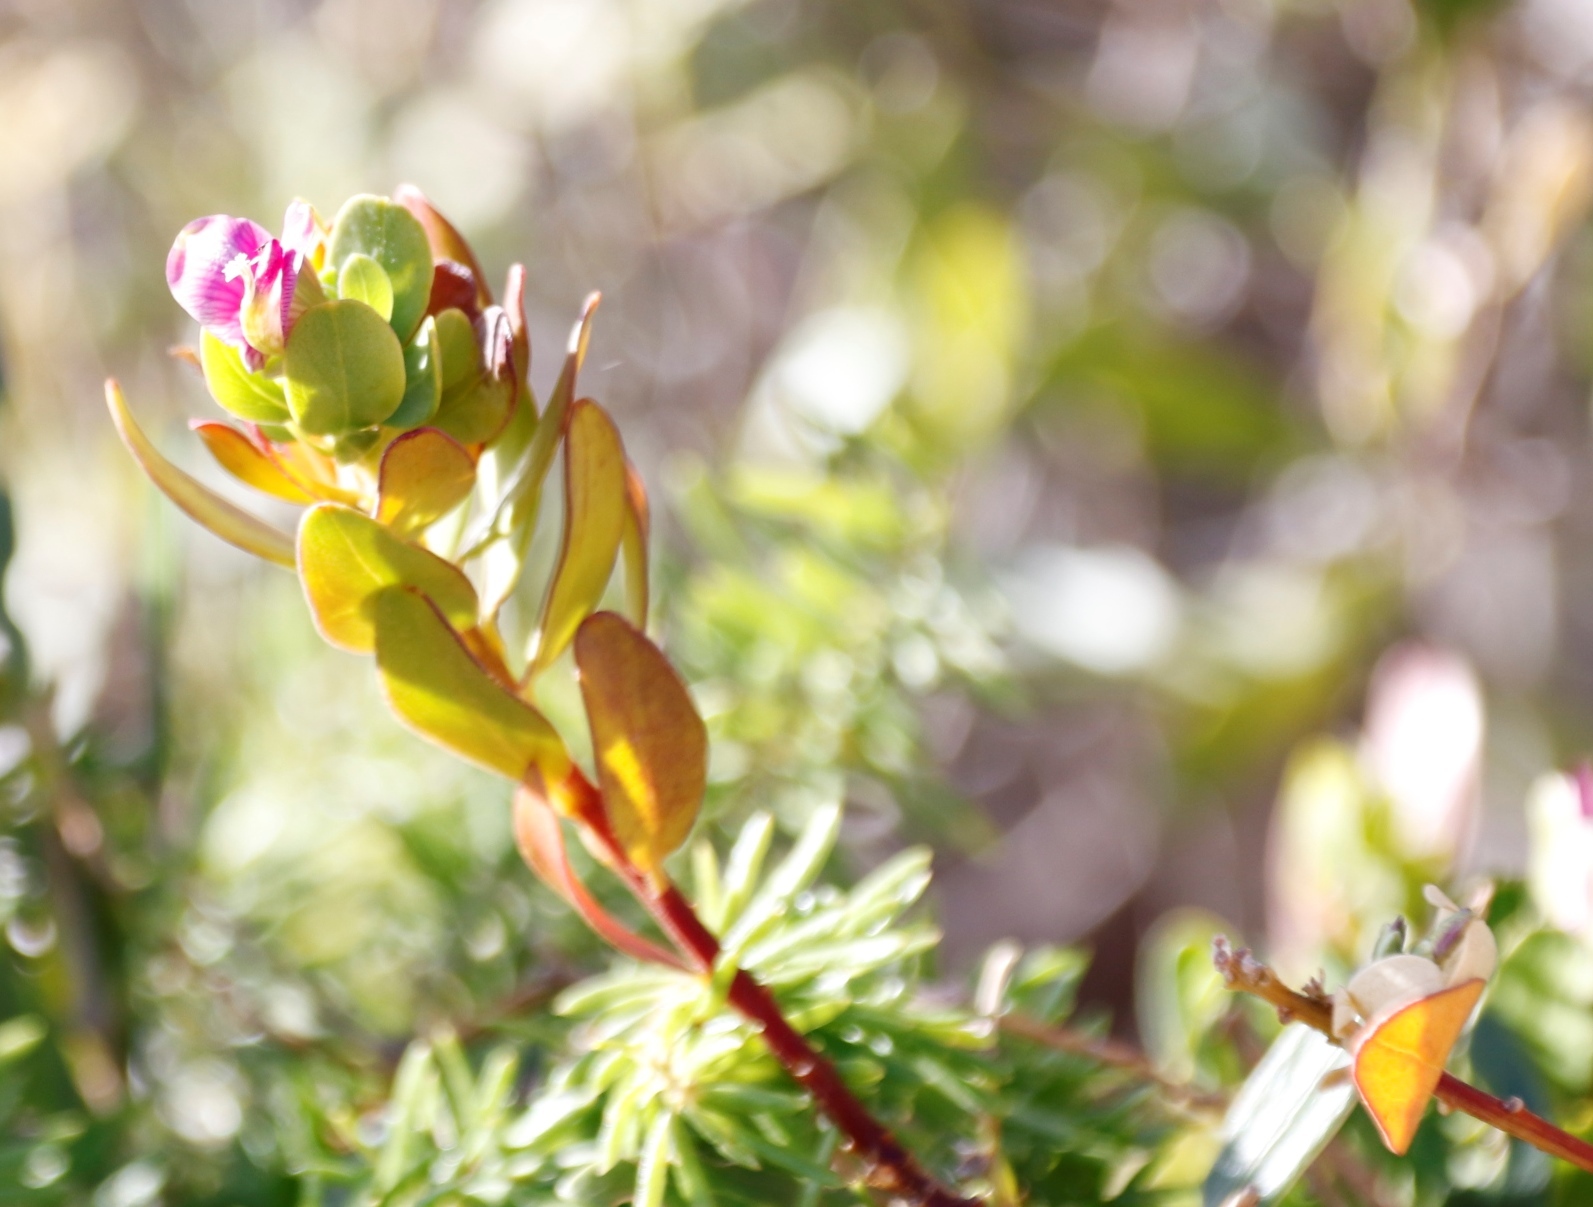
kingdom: Plantae
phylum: Tracheophyta
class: Magnoliopsida
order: Fabales
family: Polygalaceae
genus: Polygala
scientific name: Polygala myrtifolia
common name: Myrtle-leaf milkwort
